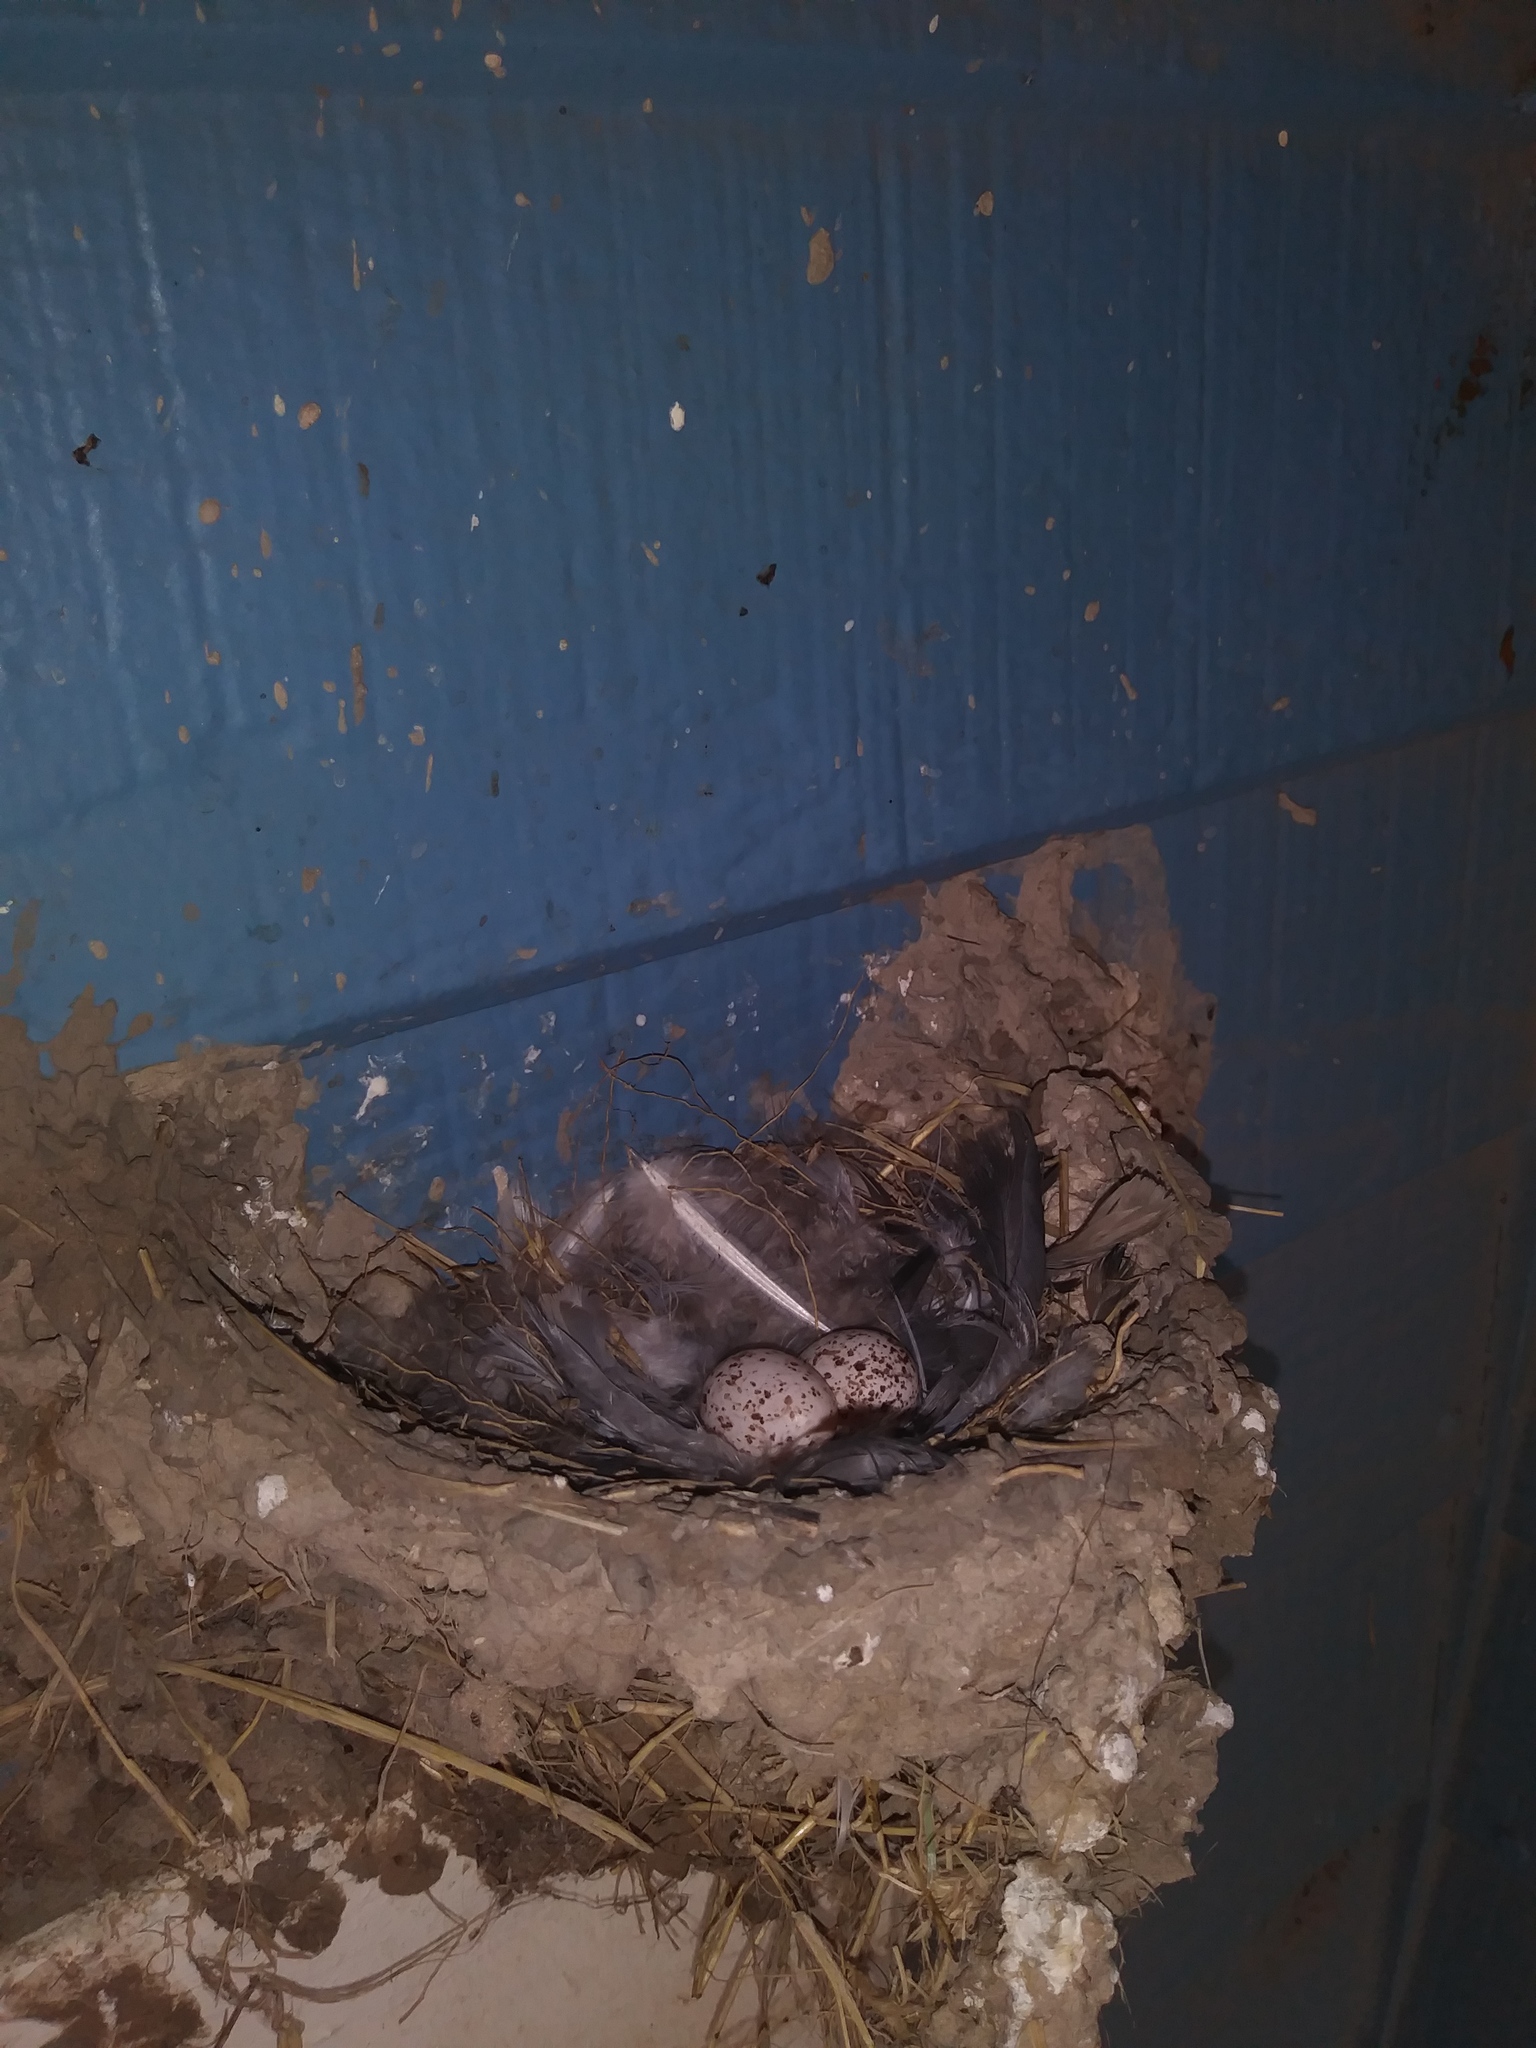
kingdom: Animalia
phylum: Chordata
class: Aves
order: Passeriformes
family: Hirundinidae
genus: Hirundo
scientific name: Hirundo rustica
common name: Barn swallow
